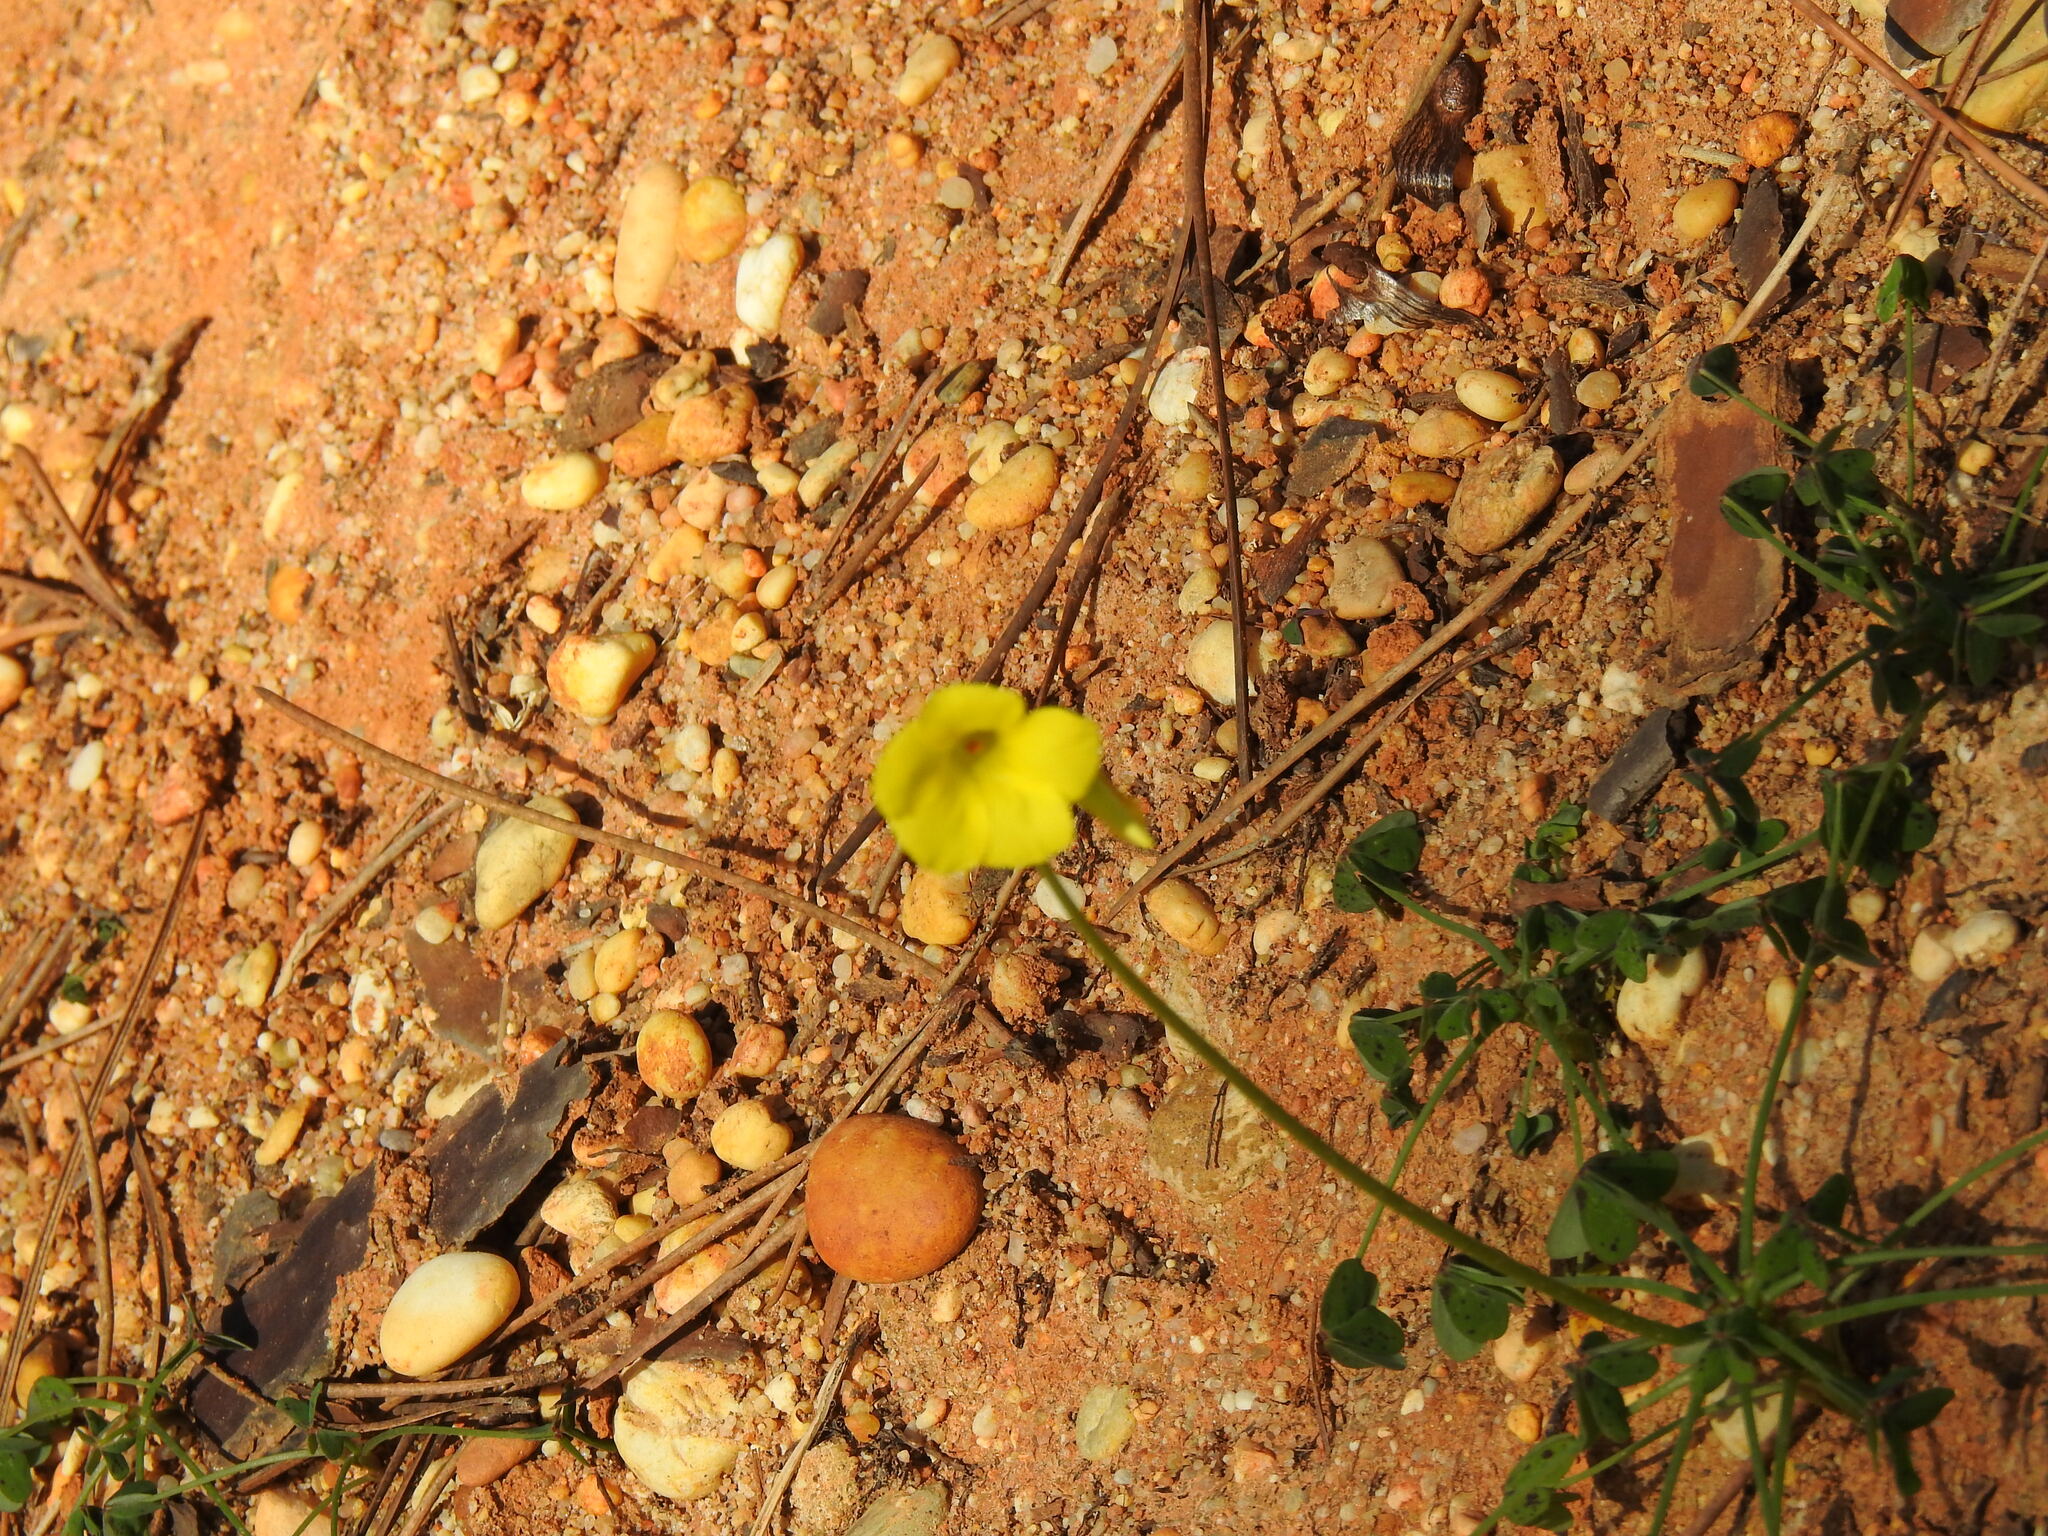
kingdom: Plantae
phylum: Tracheophyta
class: Magnoliopsida
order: Oxalidales
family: Oxalidaceae
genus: Oxalis
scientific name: Oxalis pes-caprae
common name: Bermuda-buttercup
